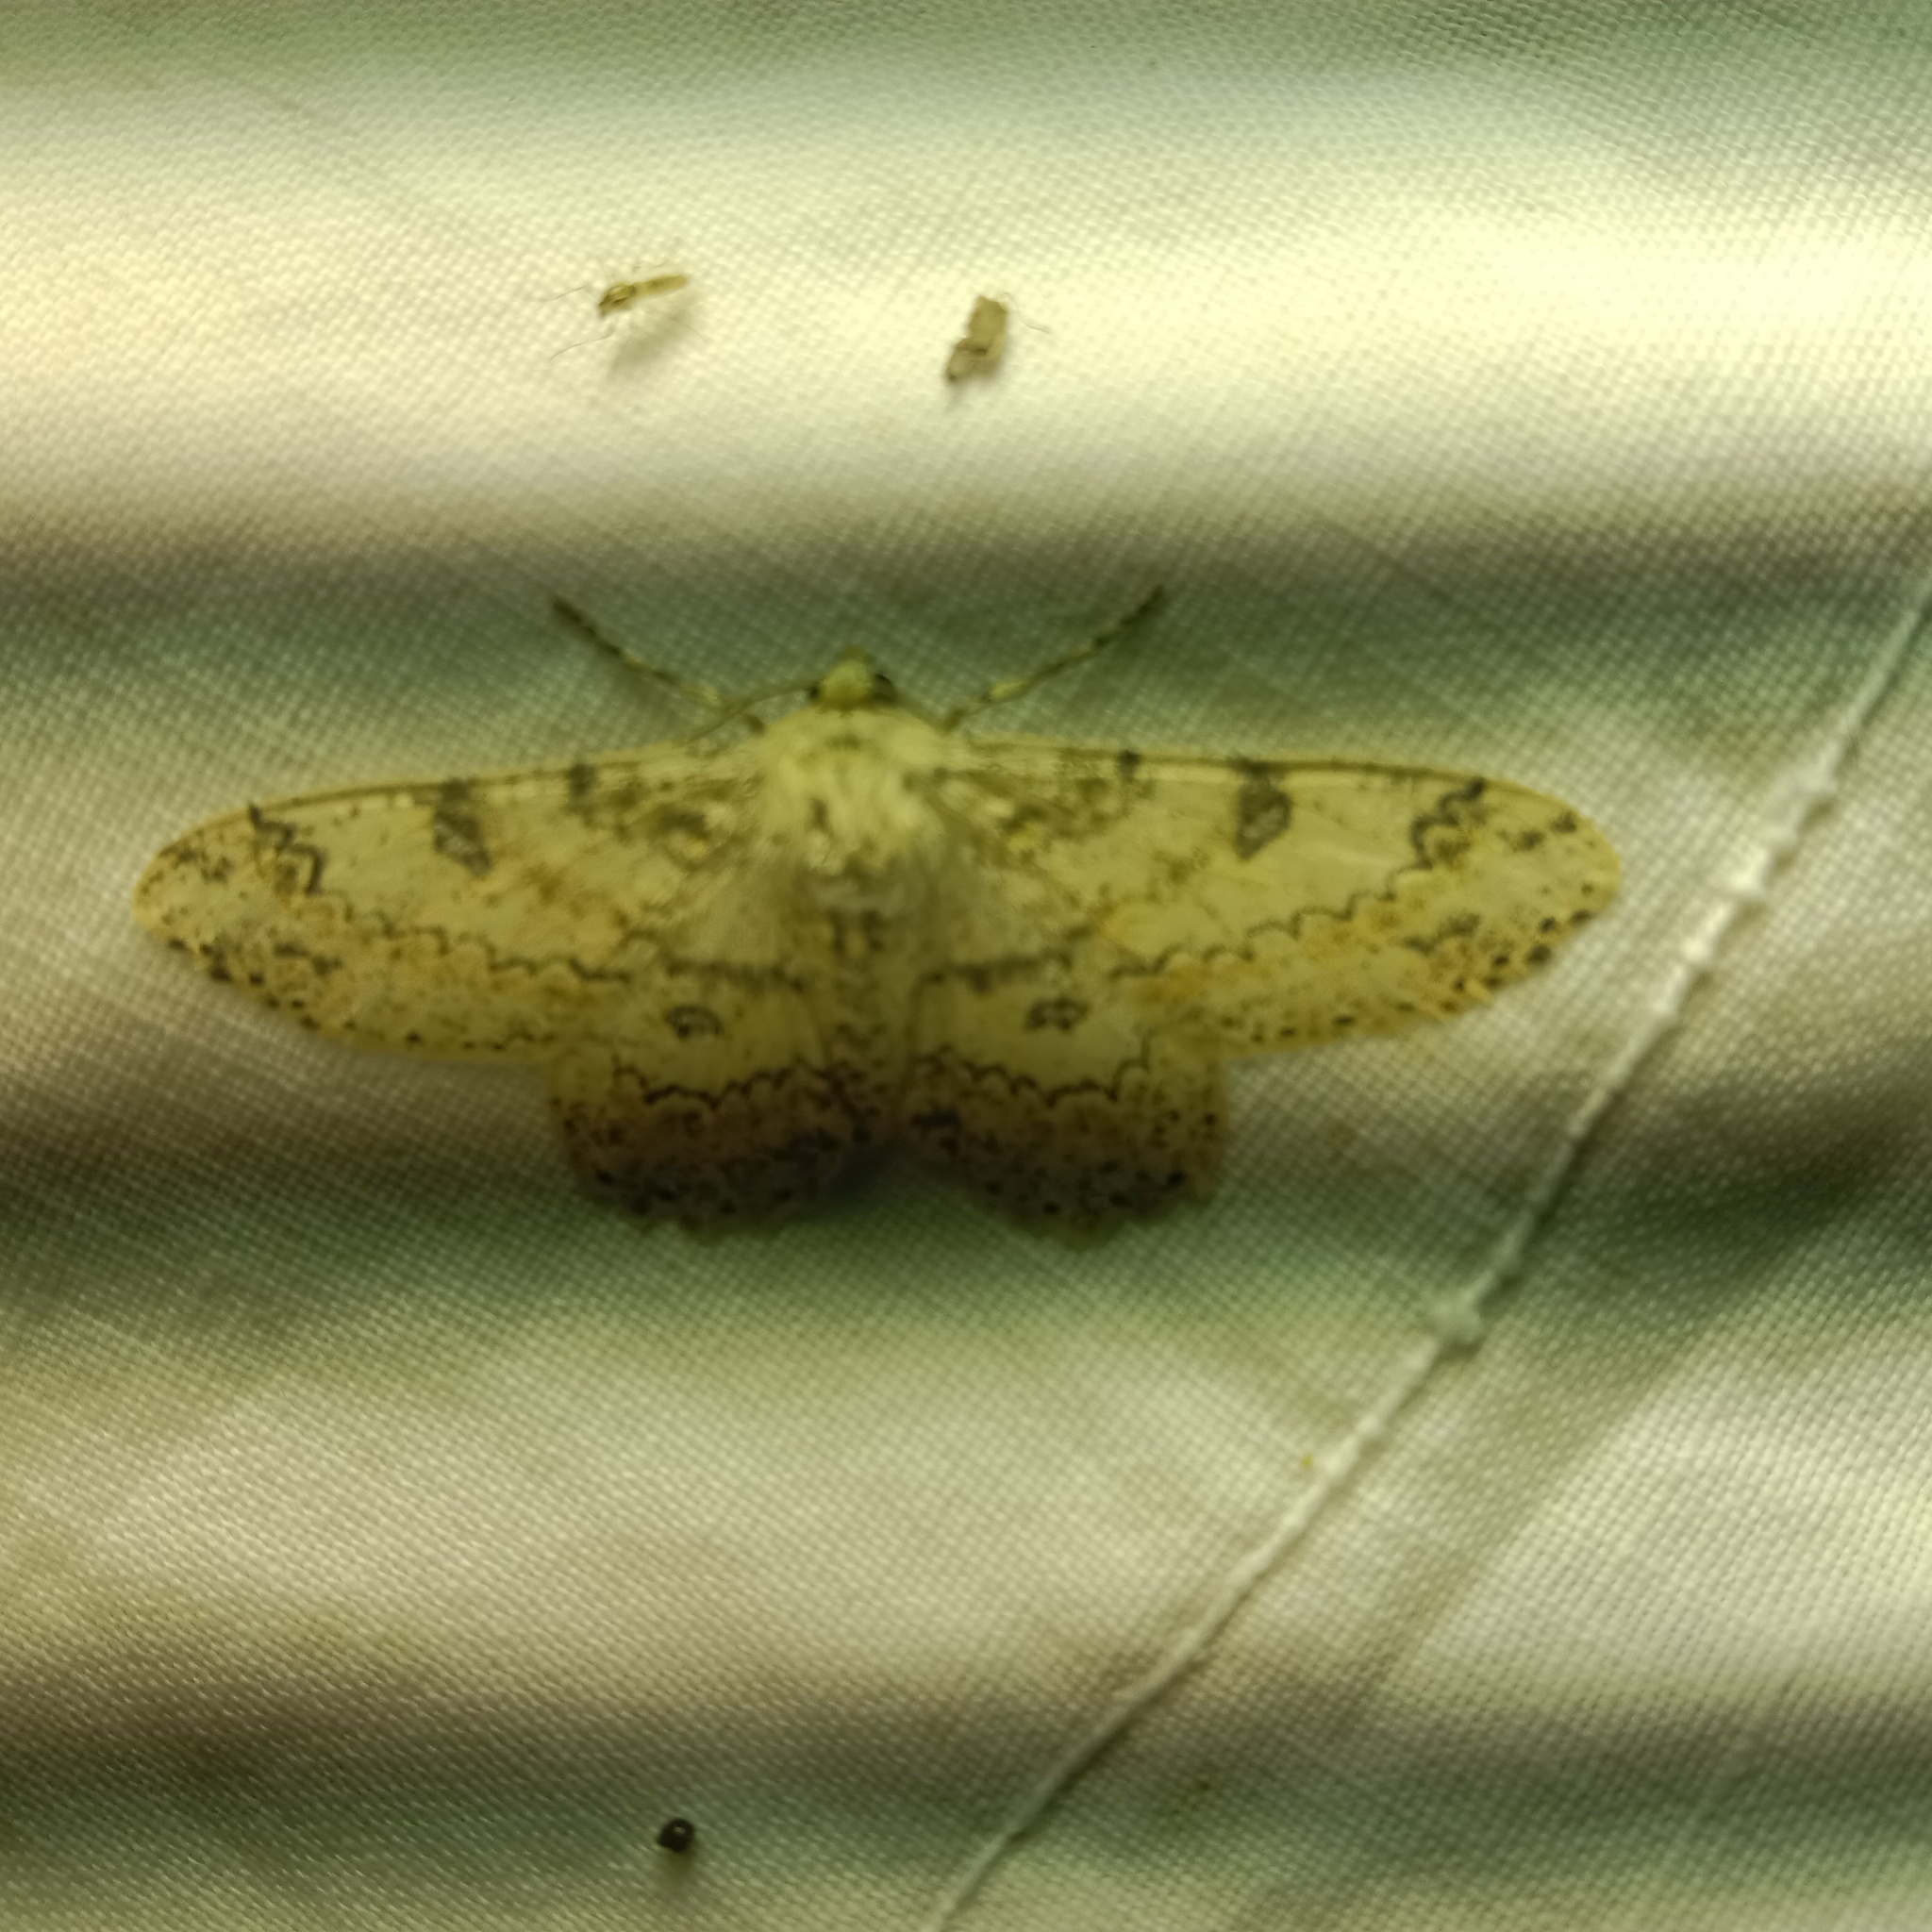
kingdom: Animalia
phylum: Arthropoda
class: Insecta
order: Lepidoptera
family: Geometridae
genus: Ascotis
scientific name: Ascotis selenaria
